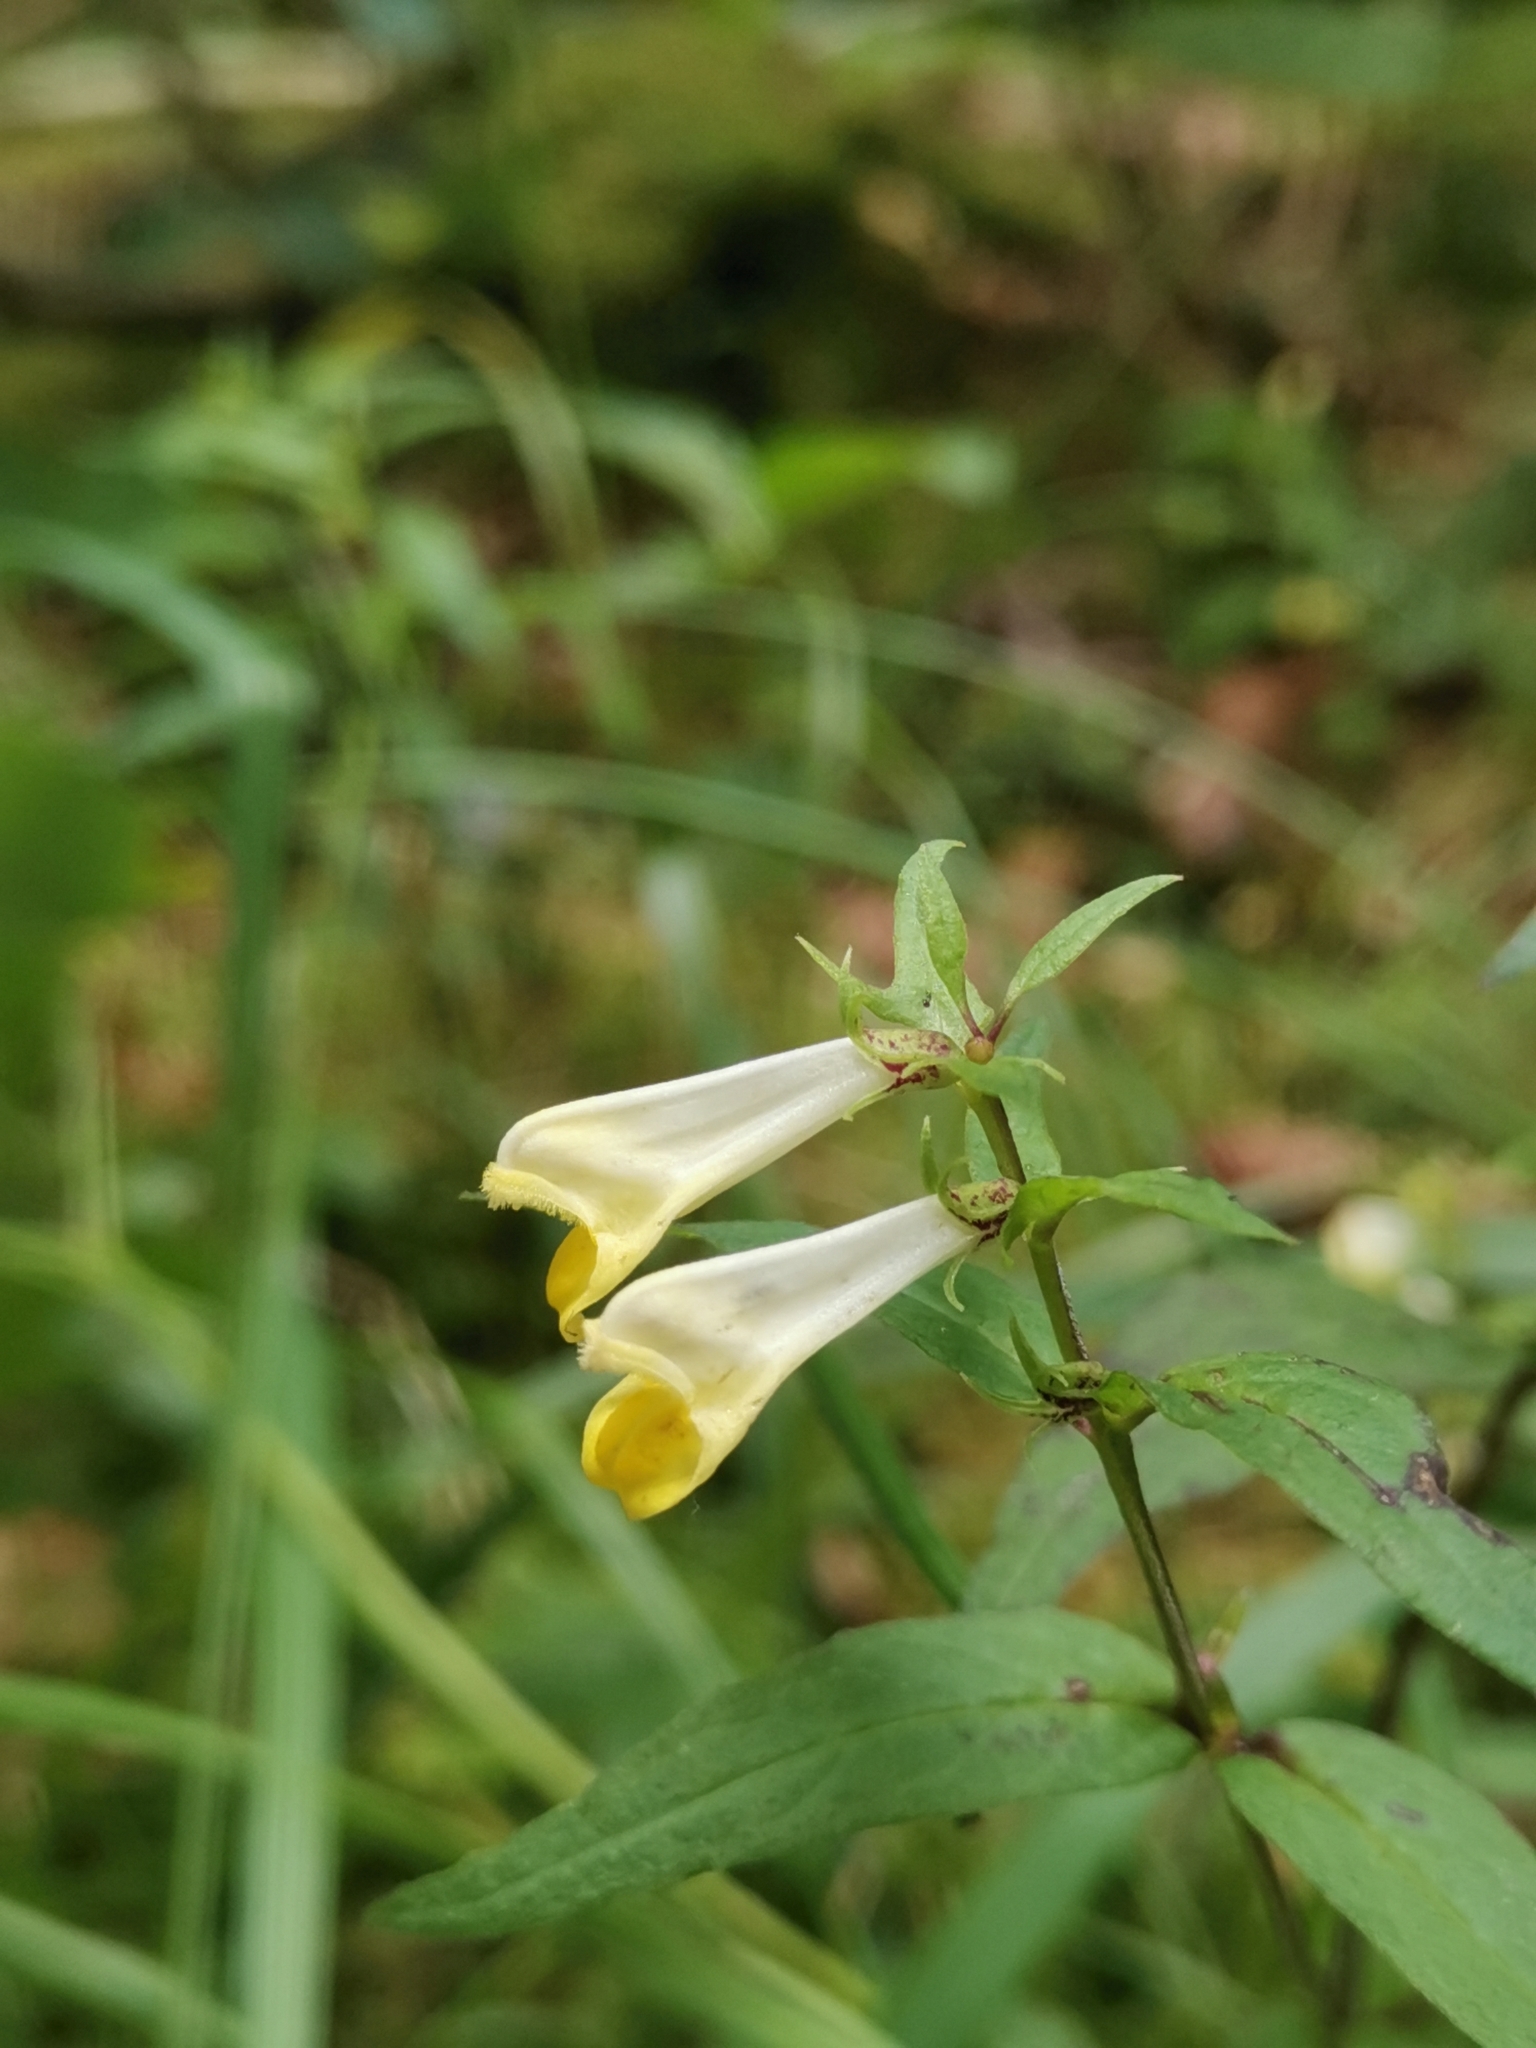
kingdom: Plantae
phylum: Tracheophyta
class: Magnoliopsida
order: Lamiales
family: Orobanchaceae
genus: Melampyrum
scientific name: Melampyrum pratense
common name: Common cow-wheat
